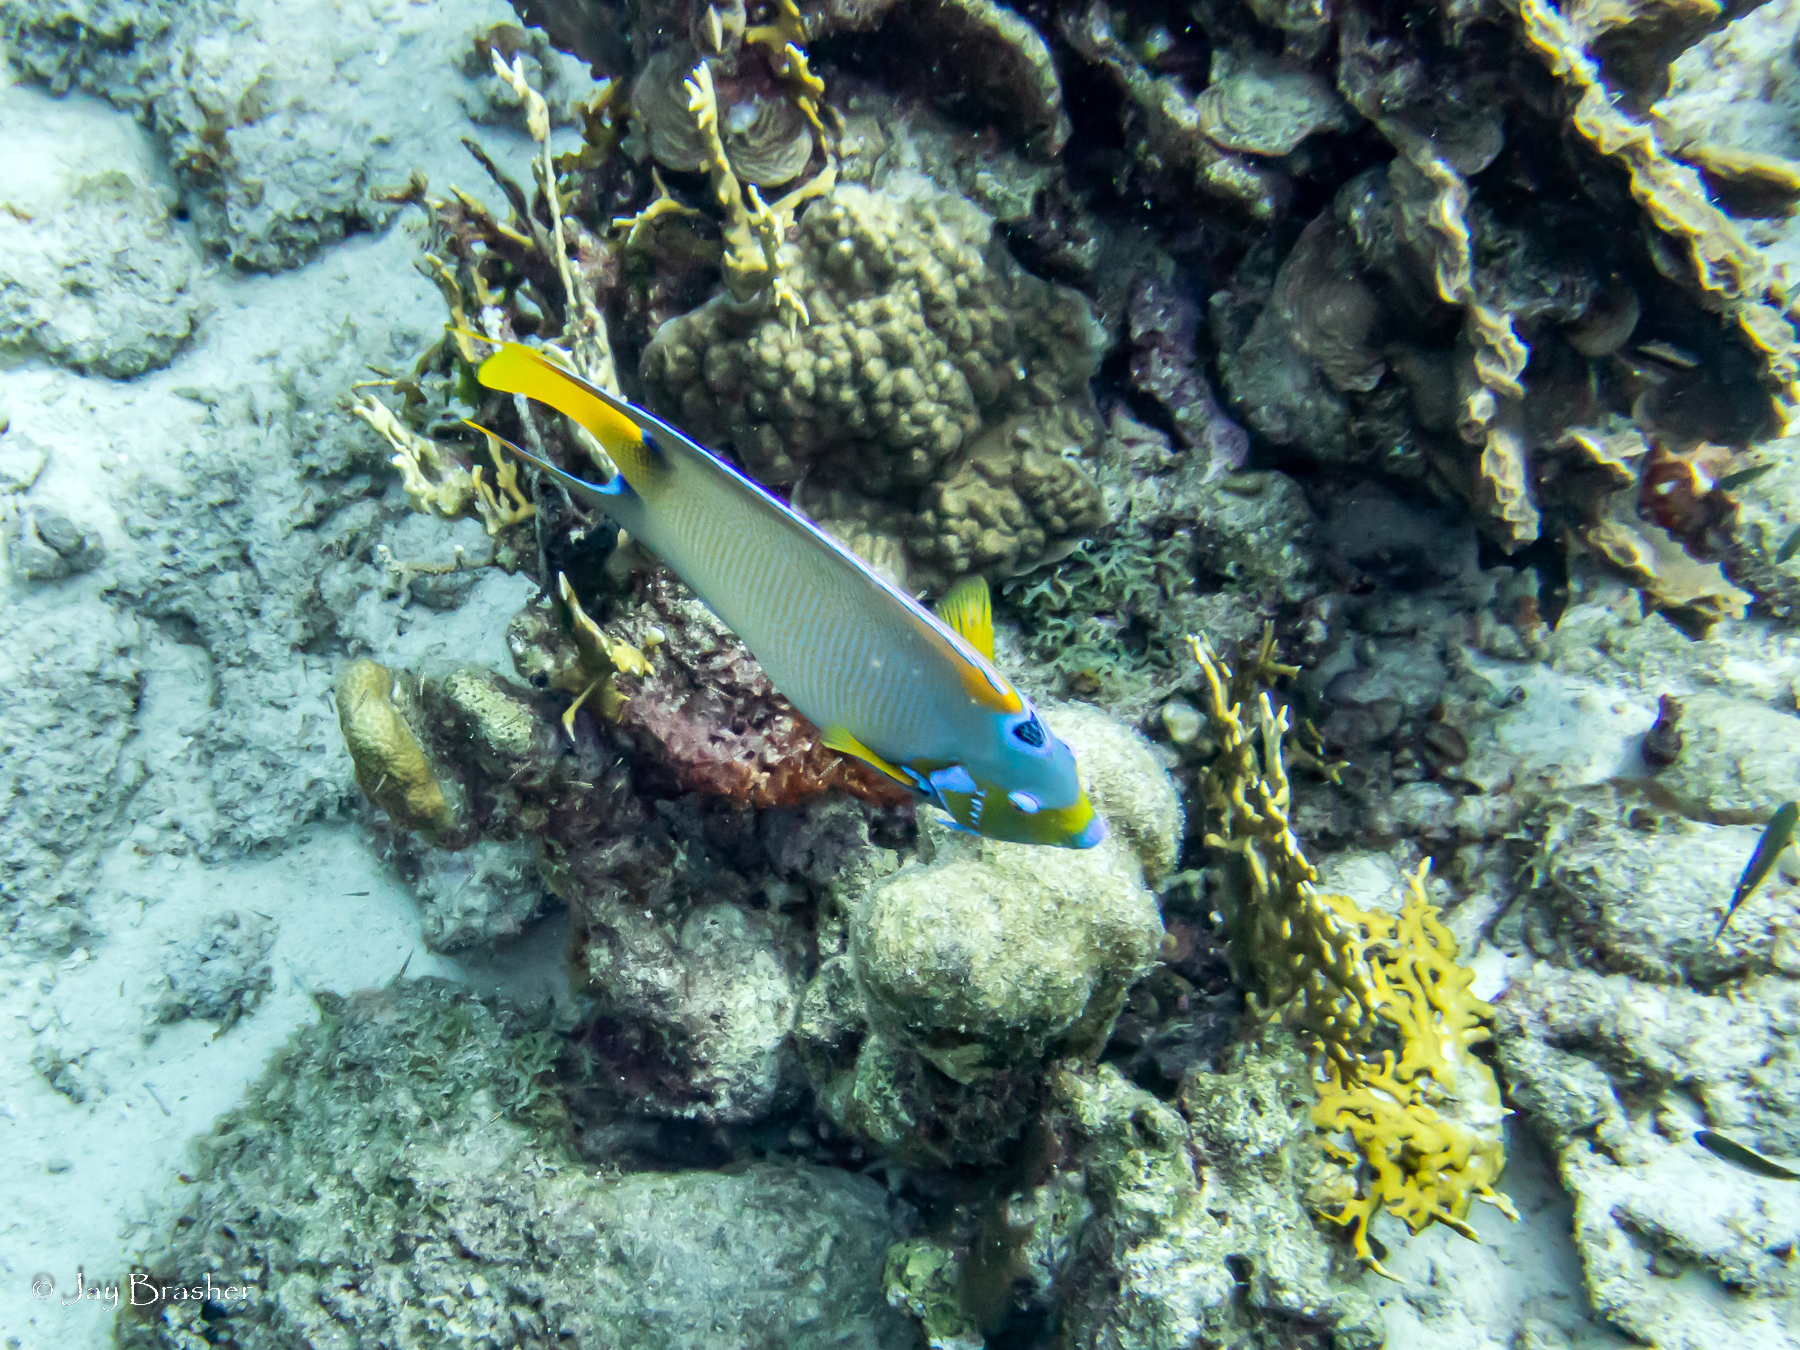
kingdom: Animalia
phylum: Cnidaria
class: Hydrozoa
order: Anthoathecata
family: Milleporidae
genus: Millepora
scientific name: Millepora alcicornis
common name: Branching fire coral
